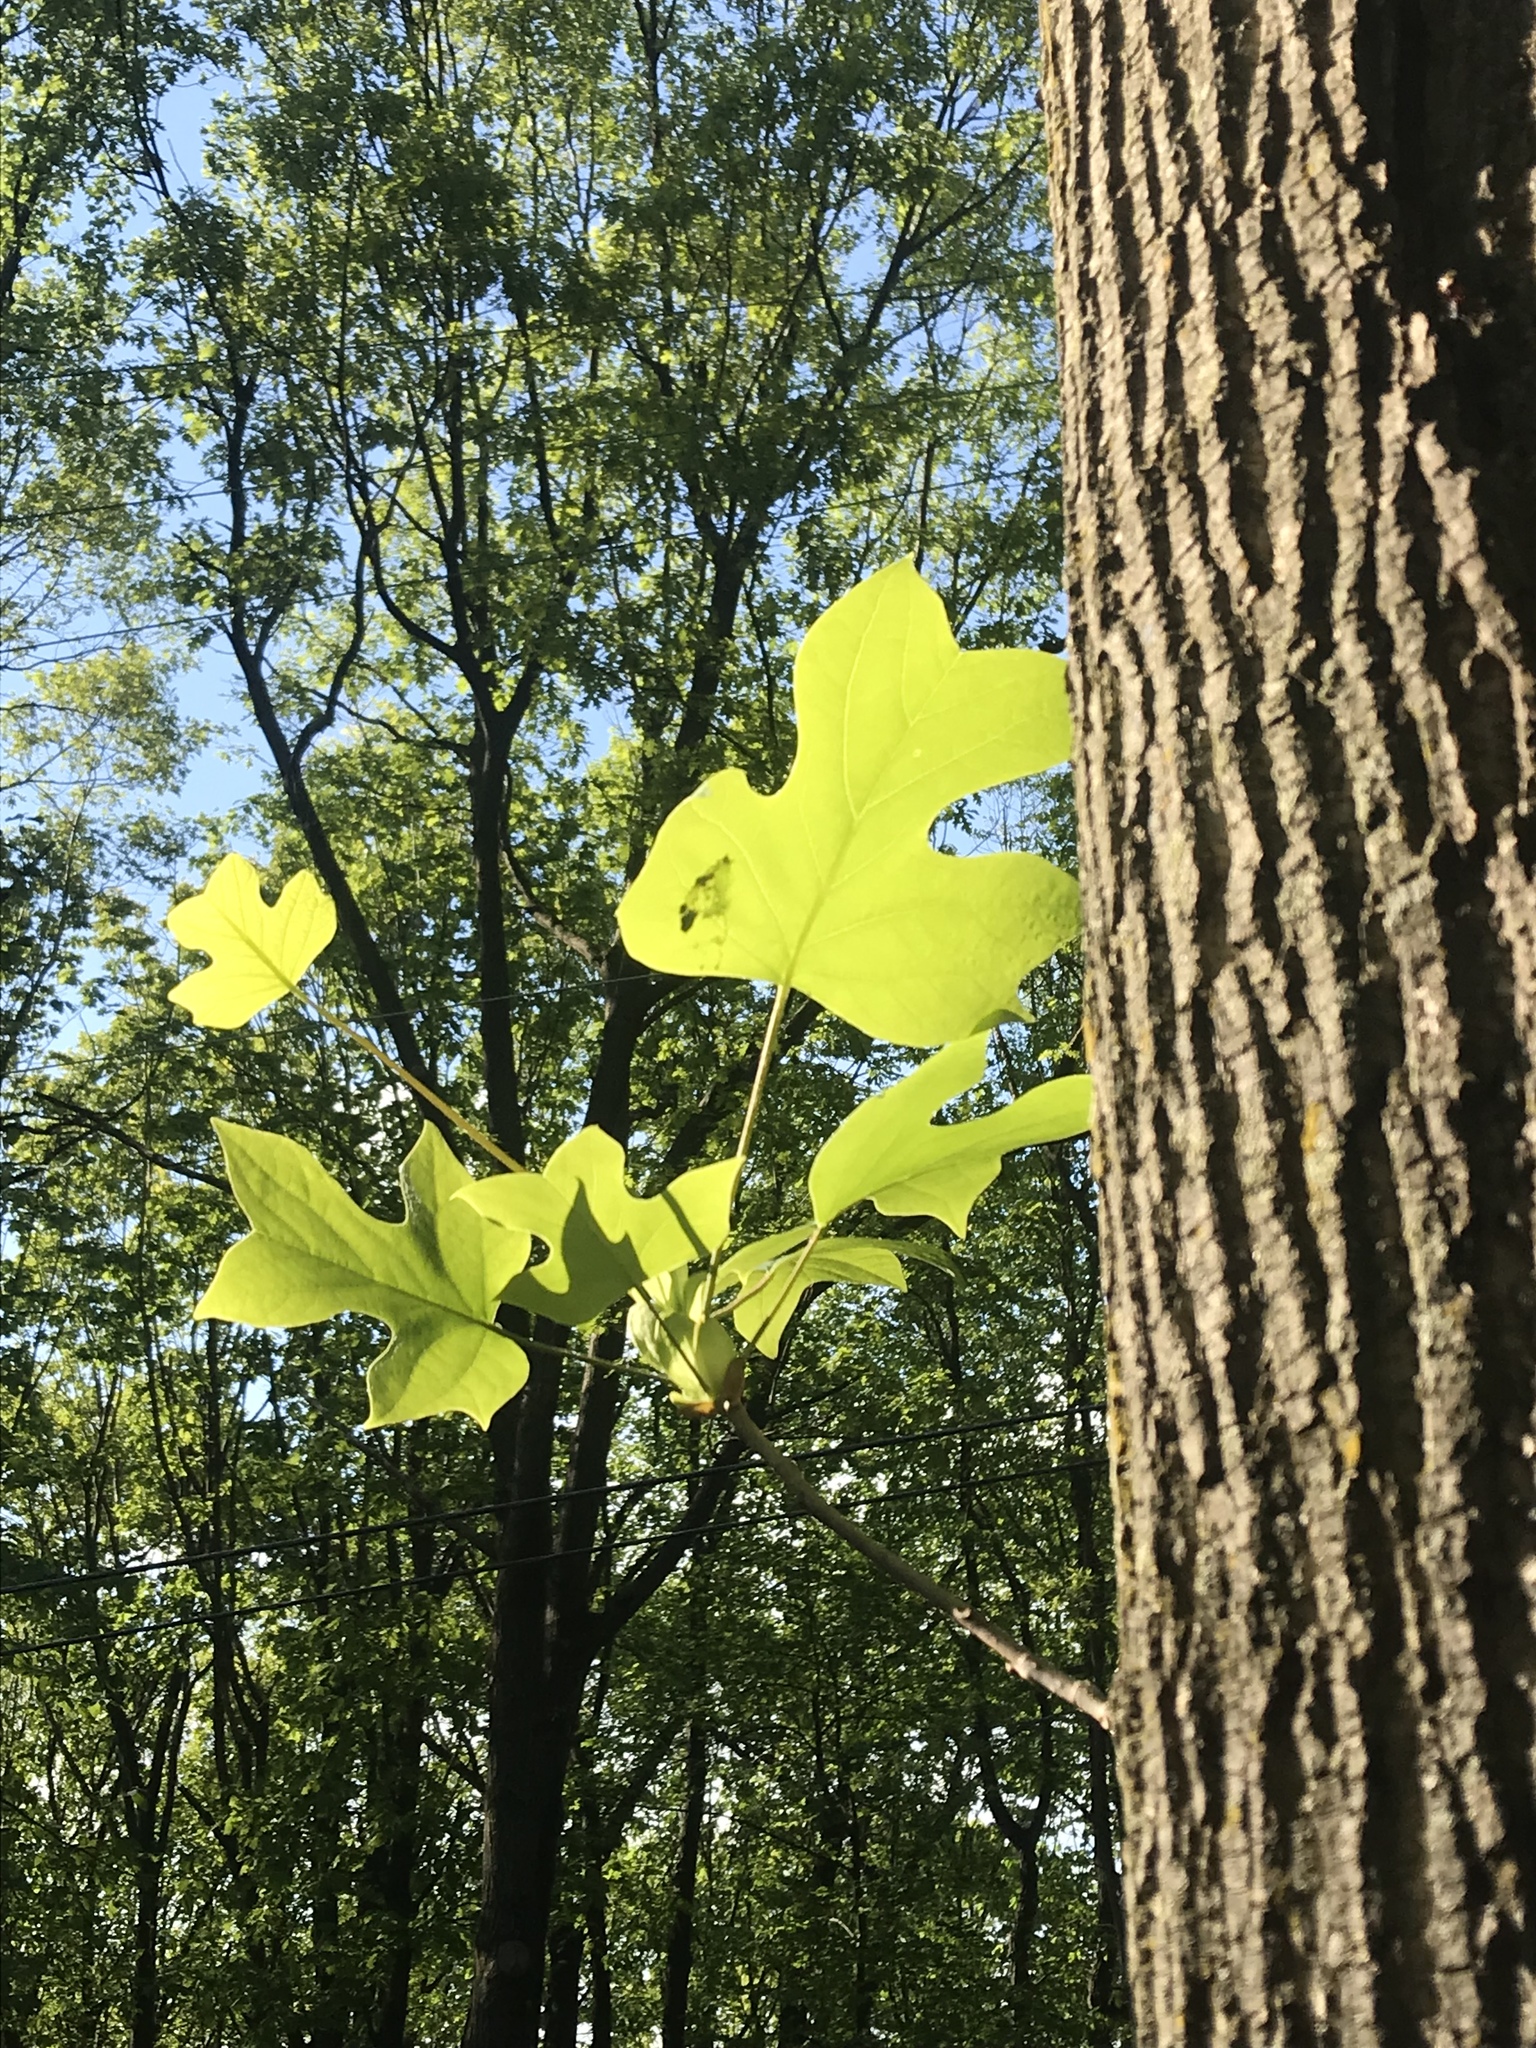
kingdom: Plantae
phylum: Tracheophyta
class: Magnoliopsida
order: Magnoliales
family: Magnoliaceae
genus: Liriodendron
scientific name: Liriodendron tulipifera
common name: Tulip tree
